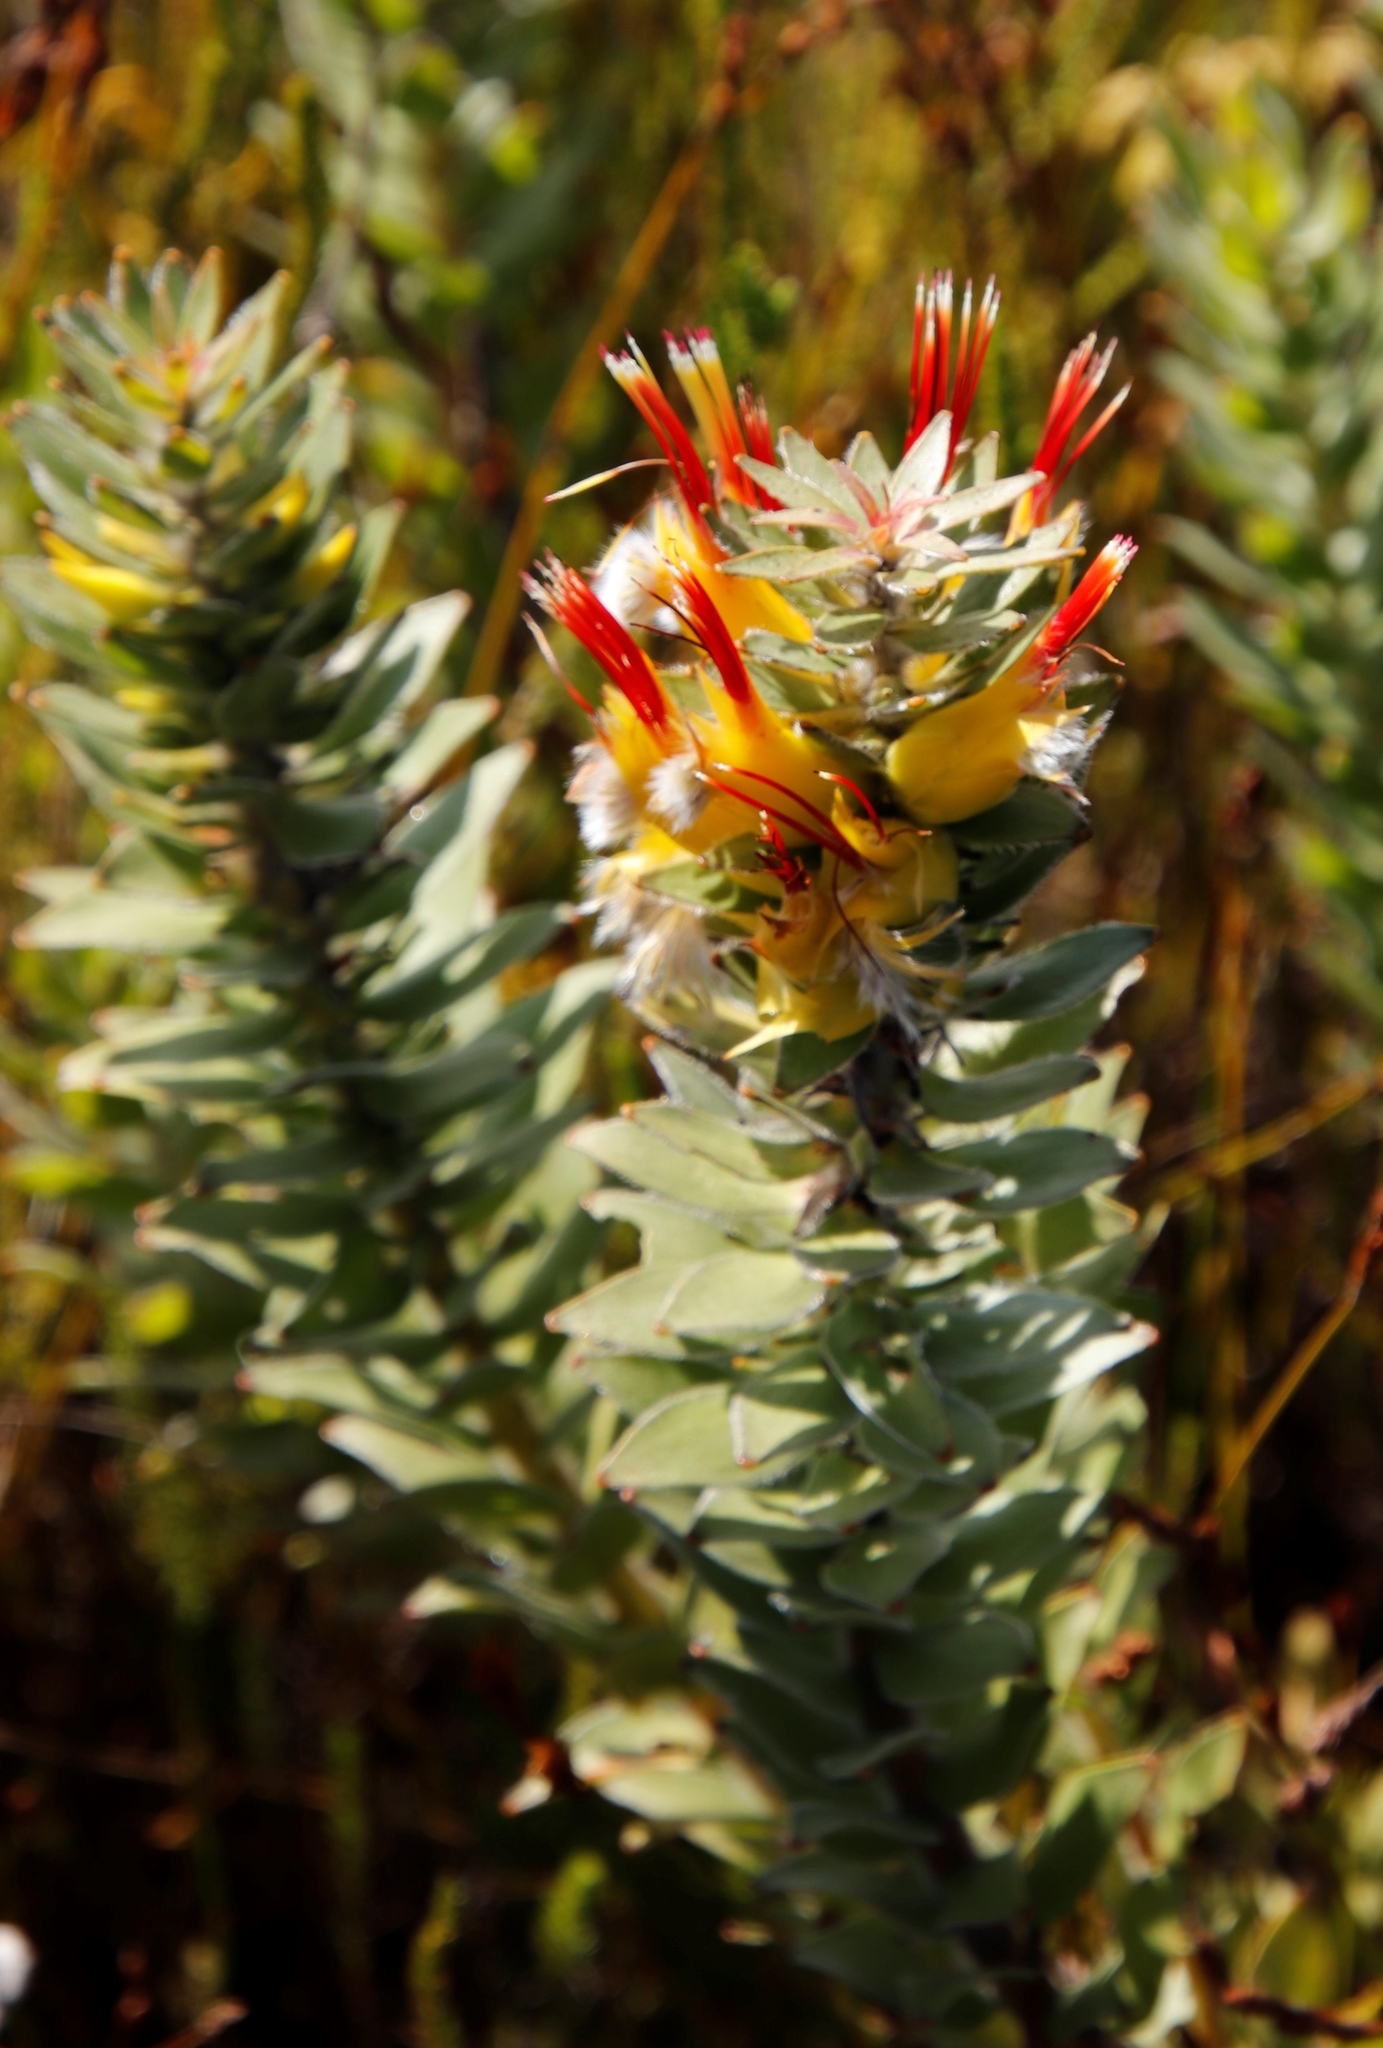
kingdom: Plantae
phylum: Tracheophyta
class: Magnoliopsida
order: Proteales
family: Proteaceae
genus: Mimetes
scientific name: Mimetes hirtus
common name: Marsh pagoda
